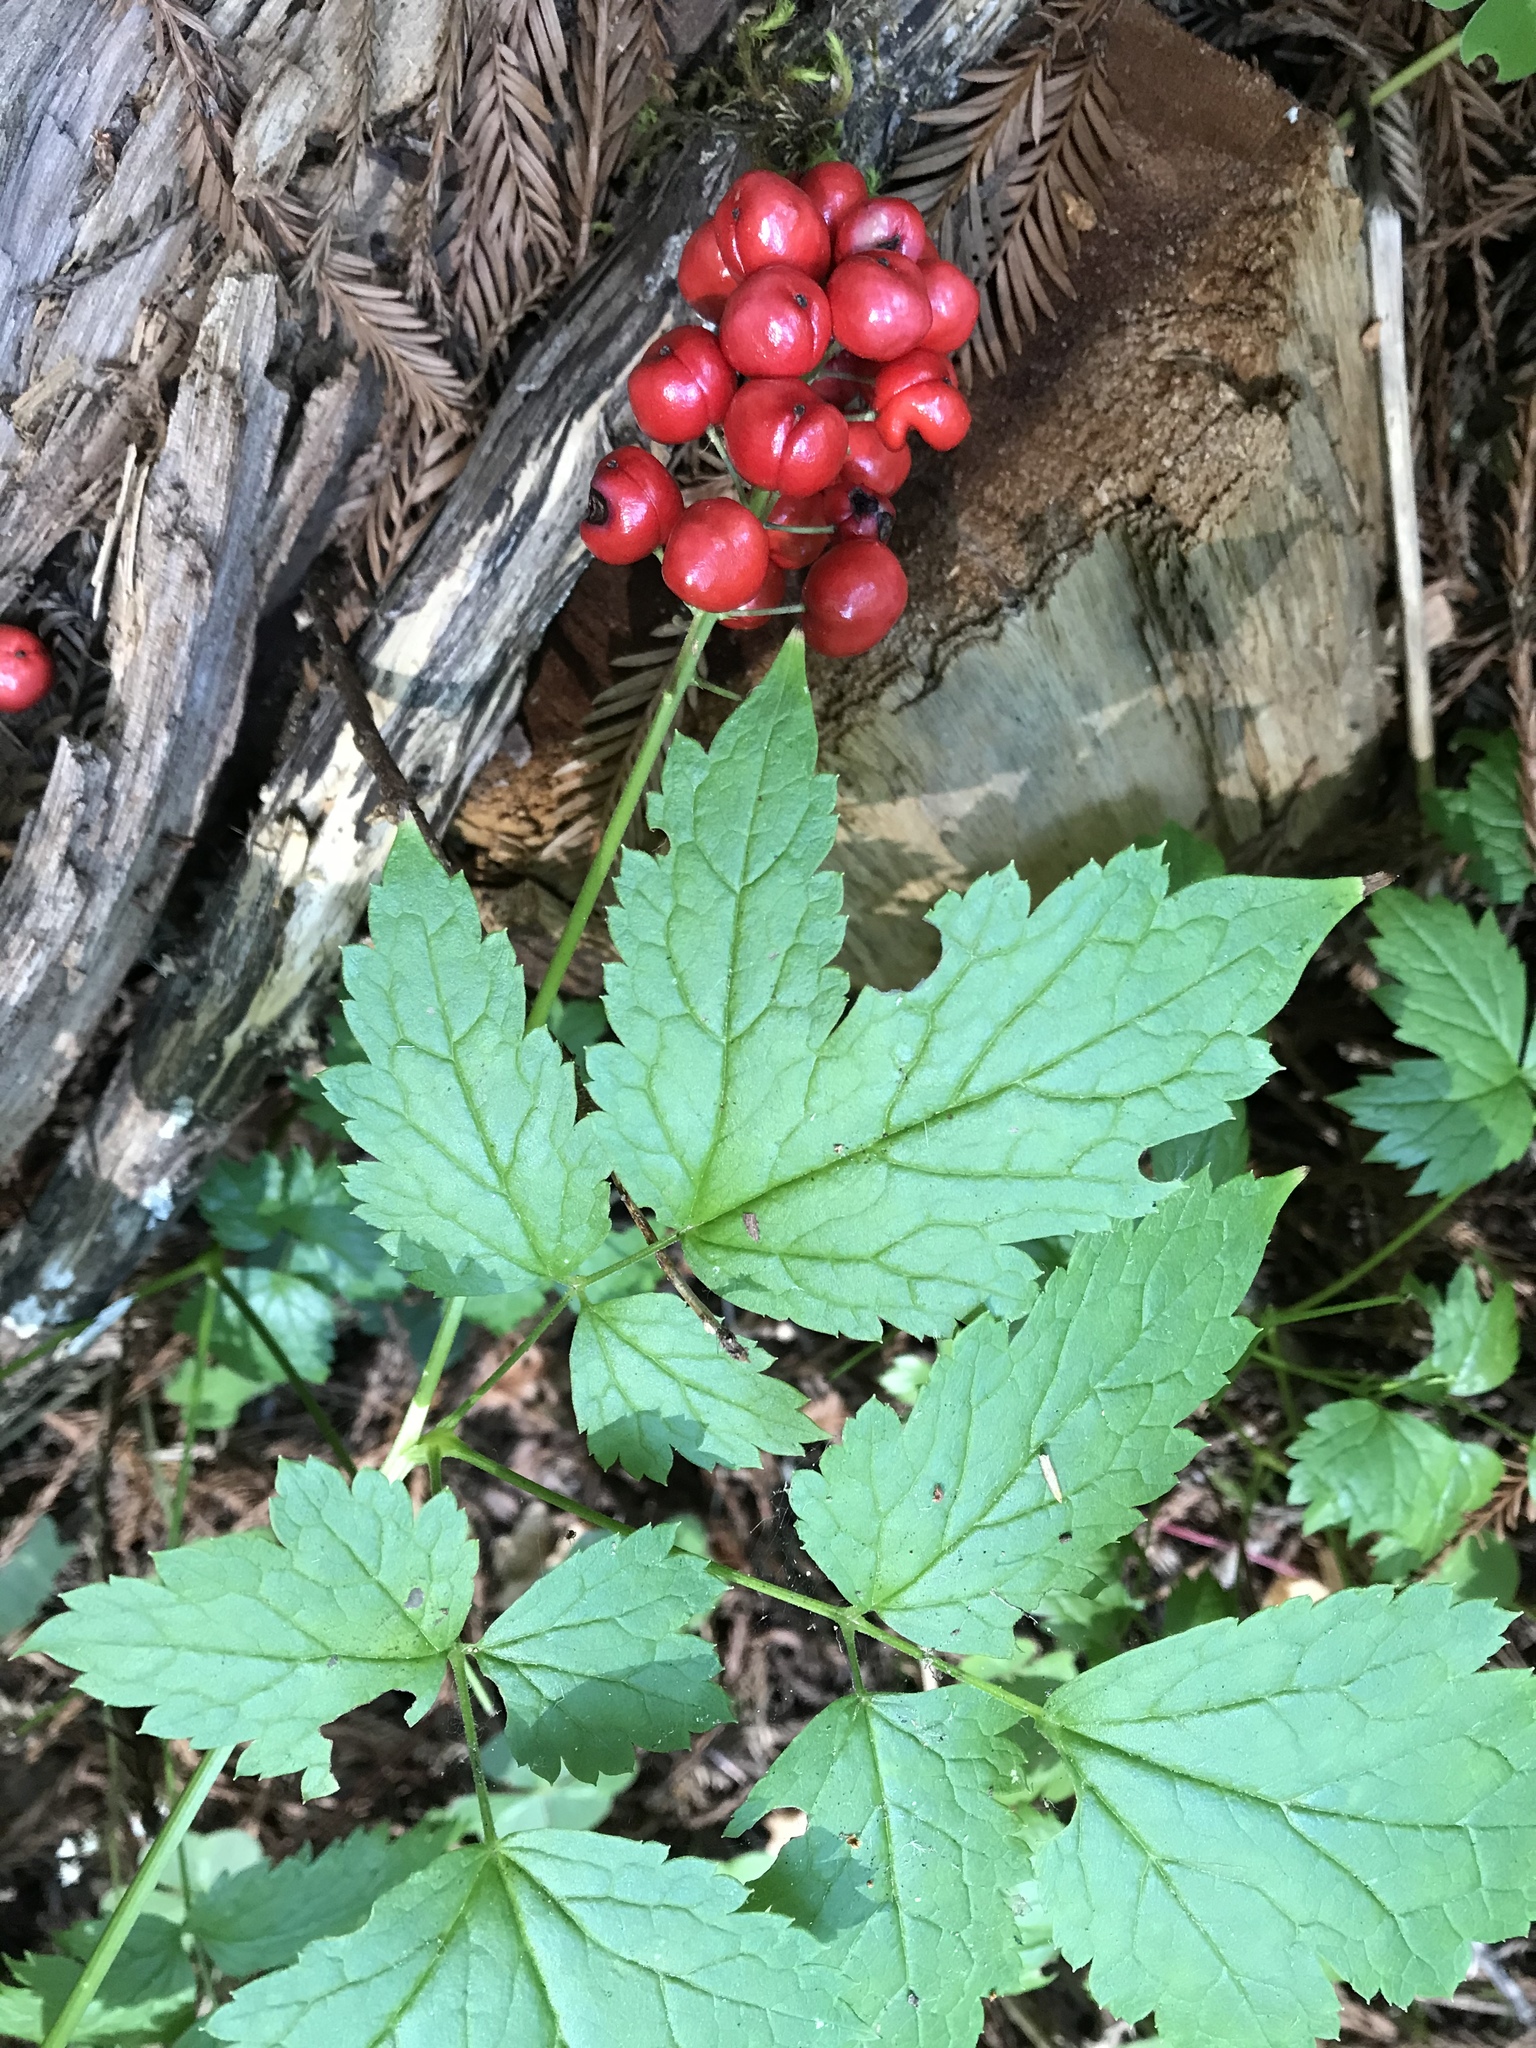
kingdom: Plantae
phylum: Tracheophyta
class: Magnoliopsida
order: Ranunculales
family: Ranunculaceae
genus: Actaea
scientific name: Actaea rubra
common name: Red baneberry
